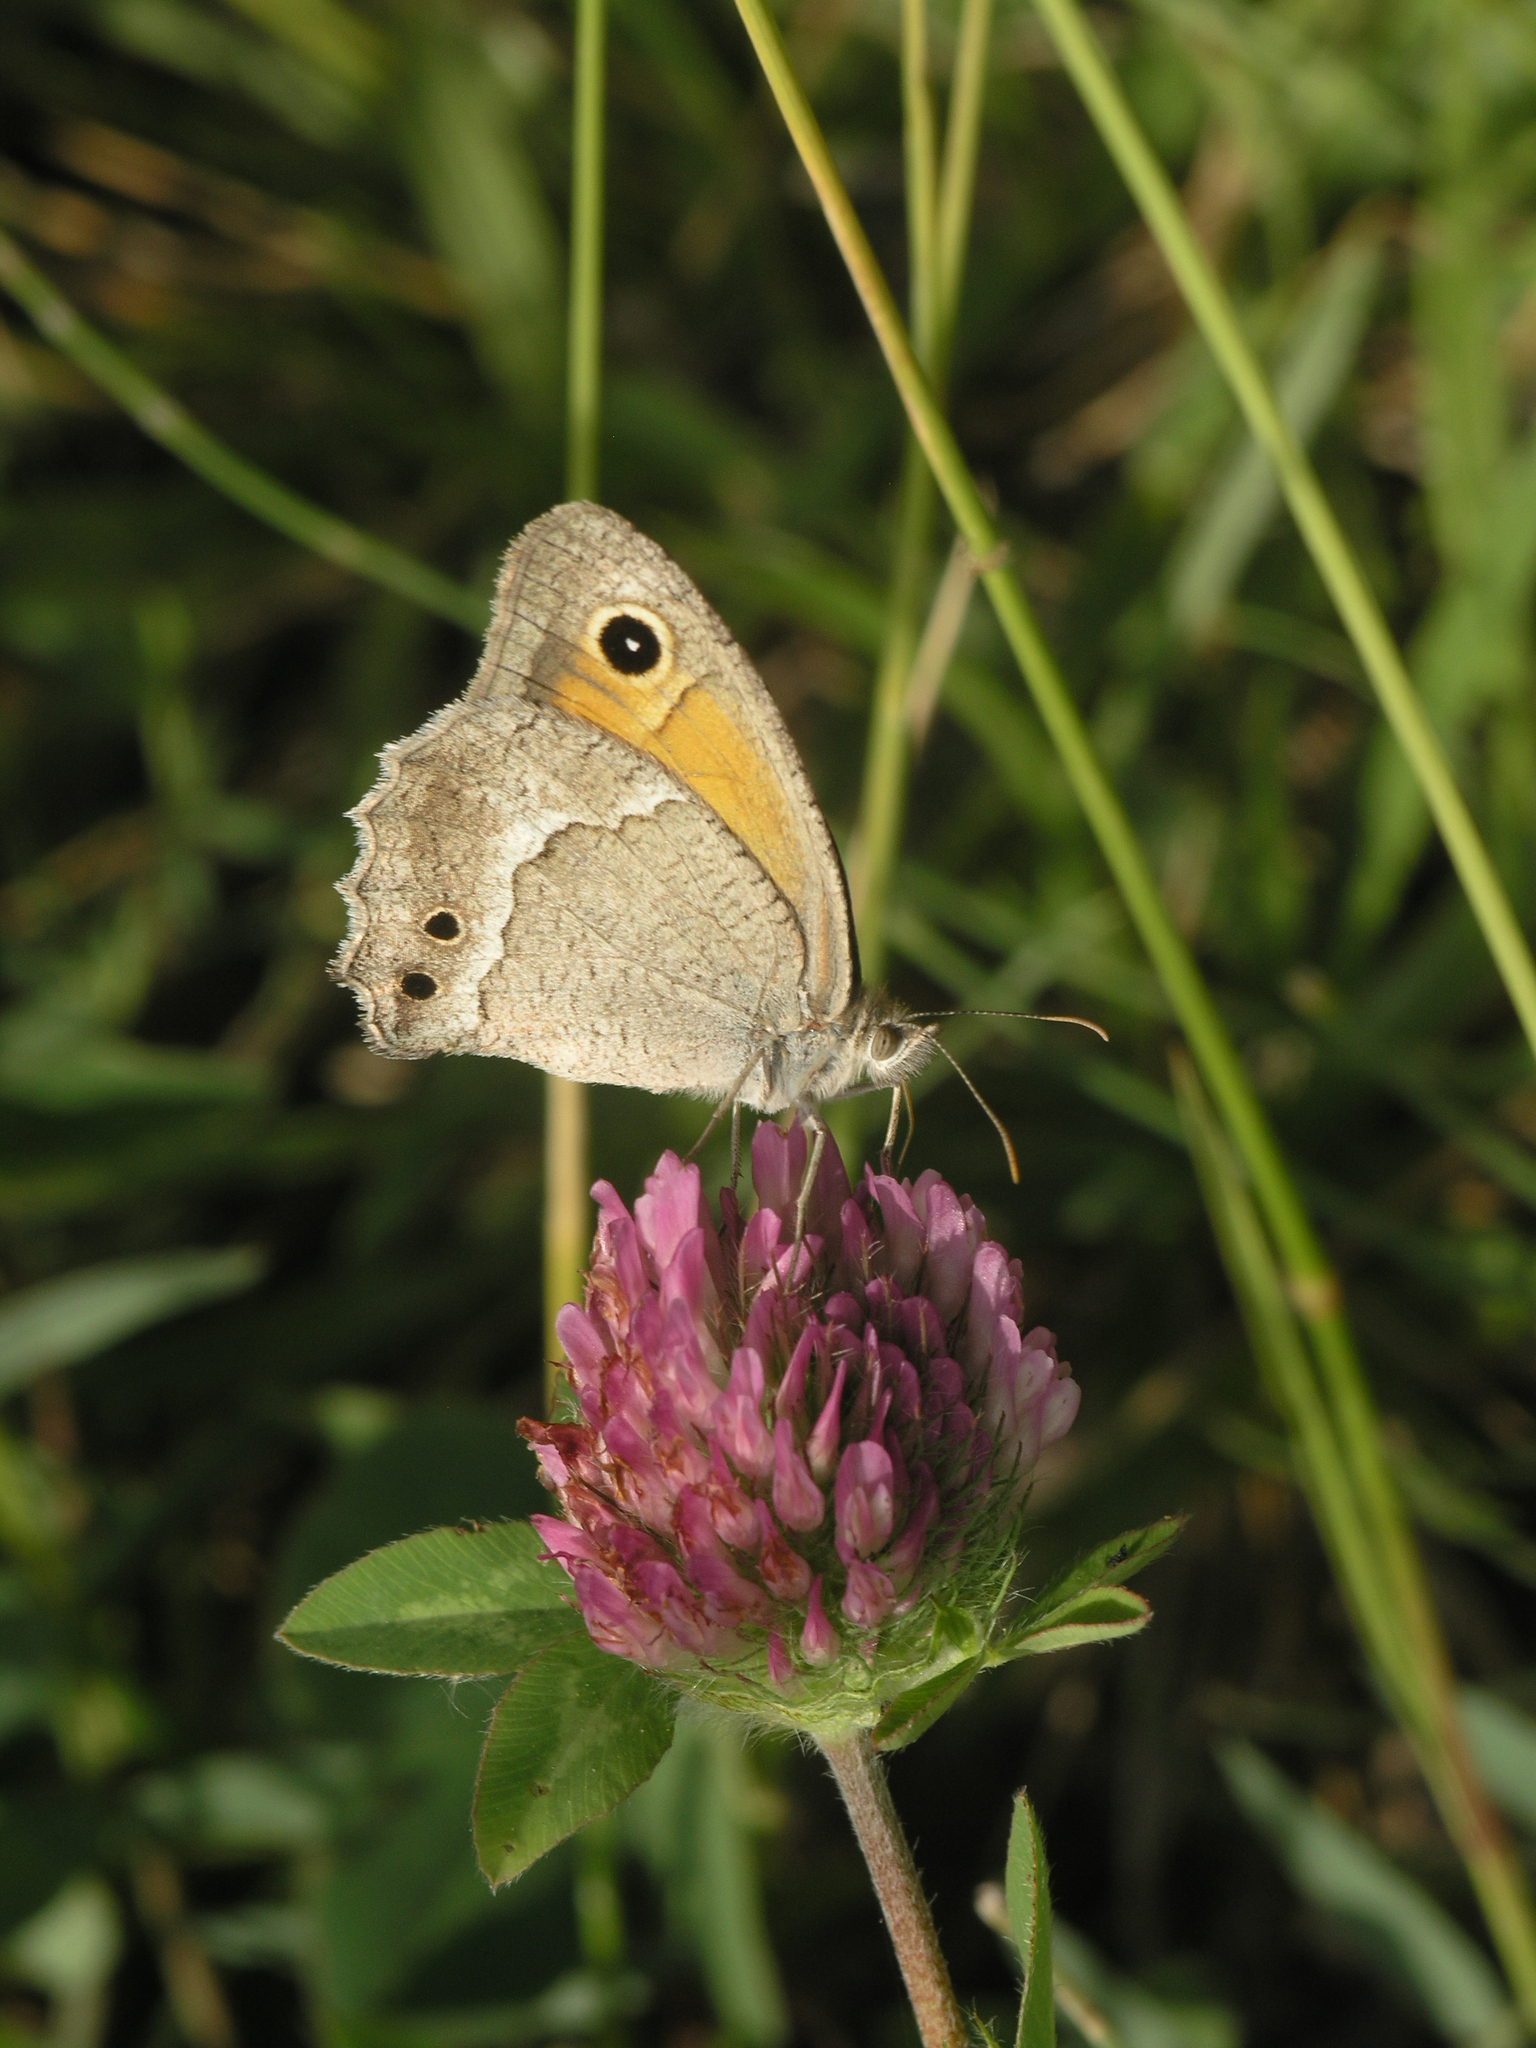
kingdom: Animalia
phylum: Arthropoda
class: Insecta
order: Lepidoptera
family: Nymphalidae
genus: Hyponephele
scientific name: Hyponephele dysdora
